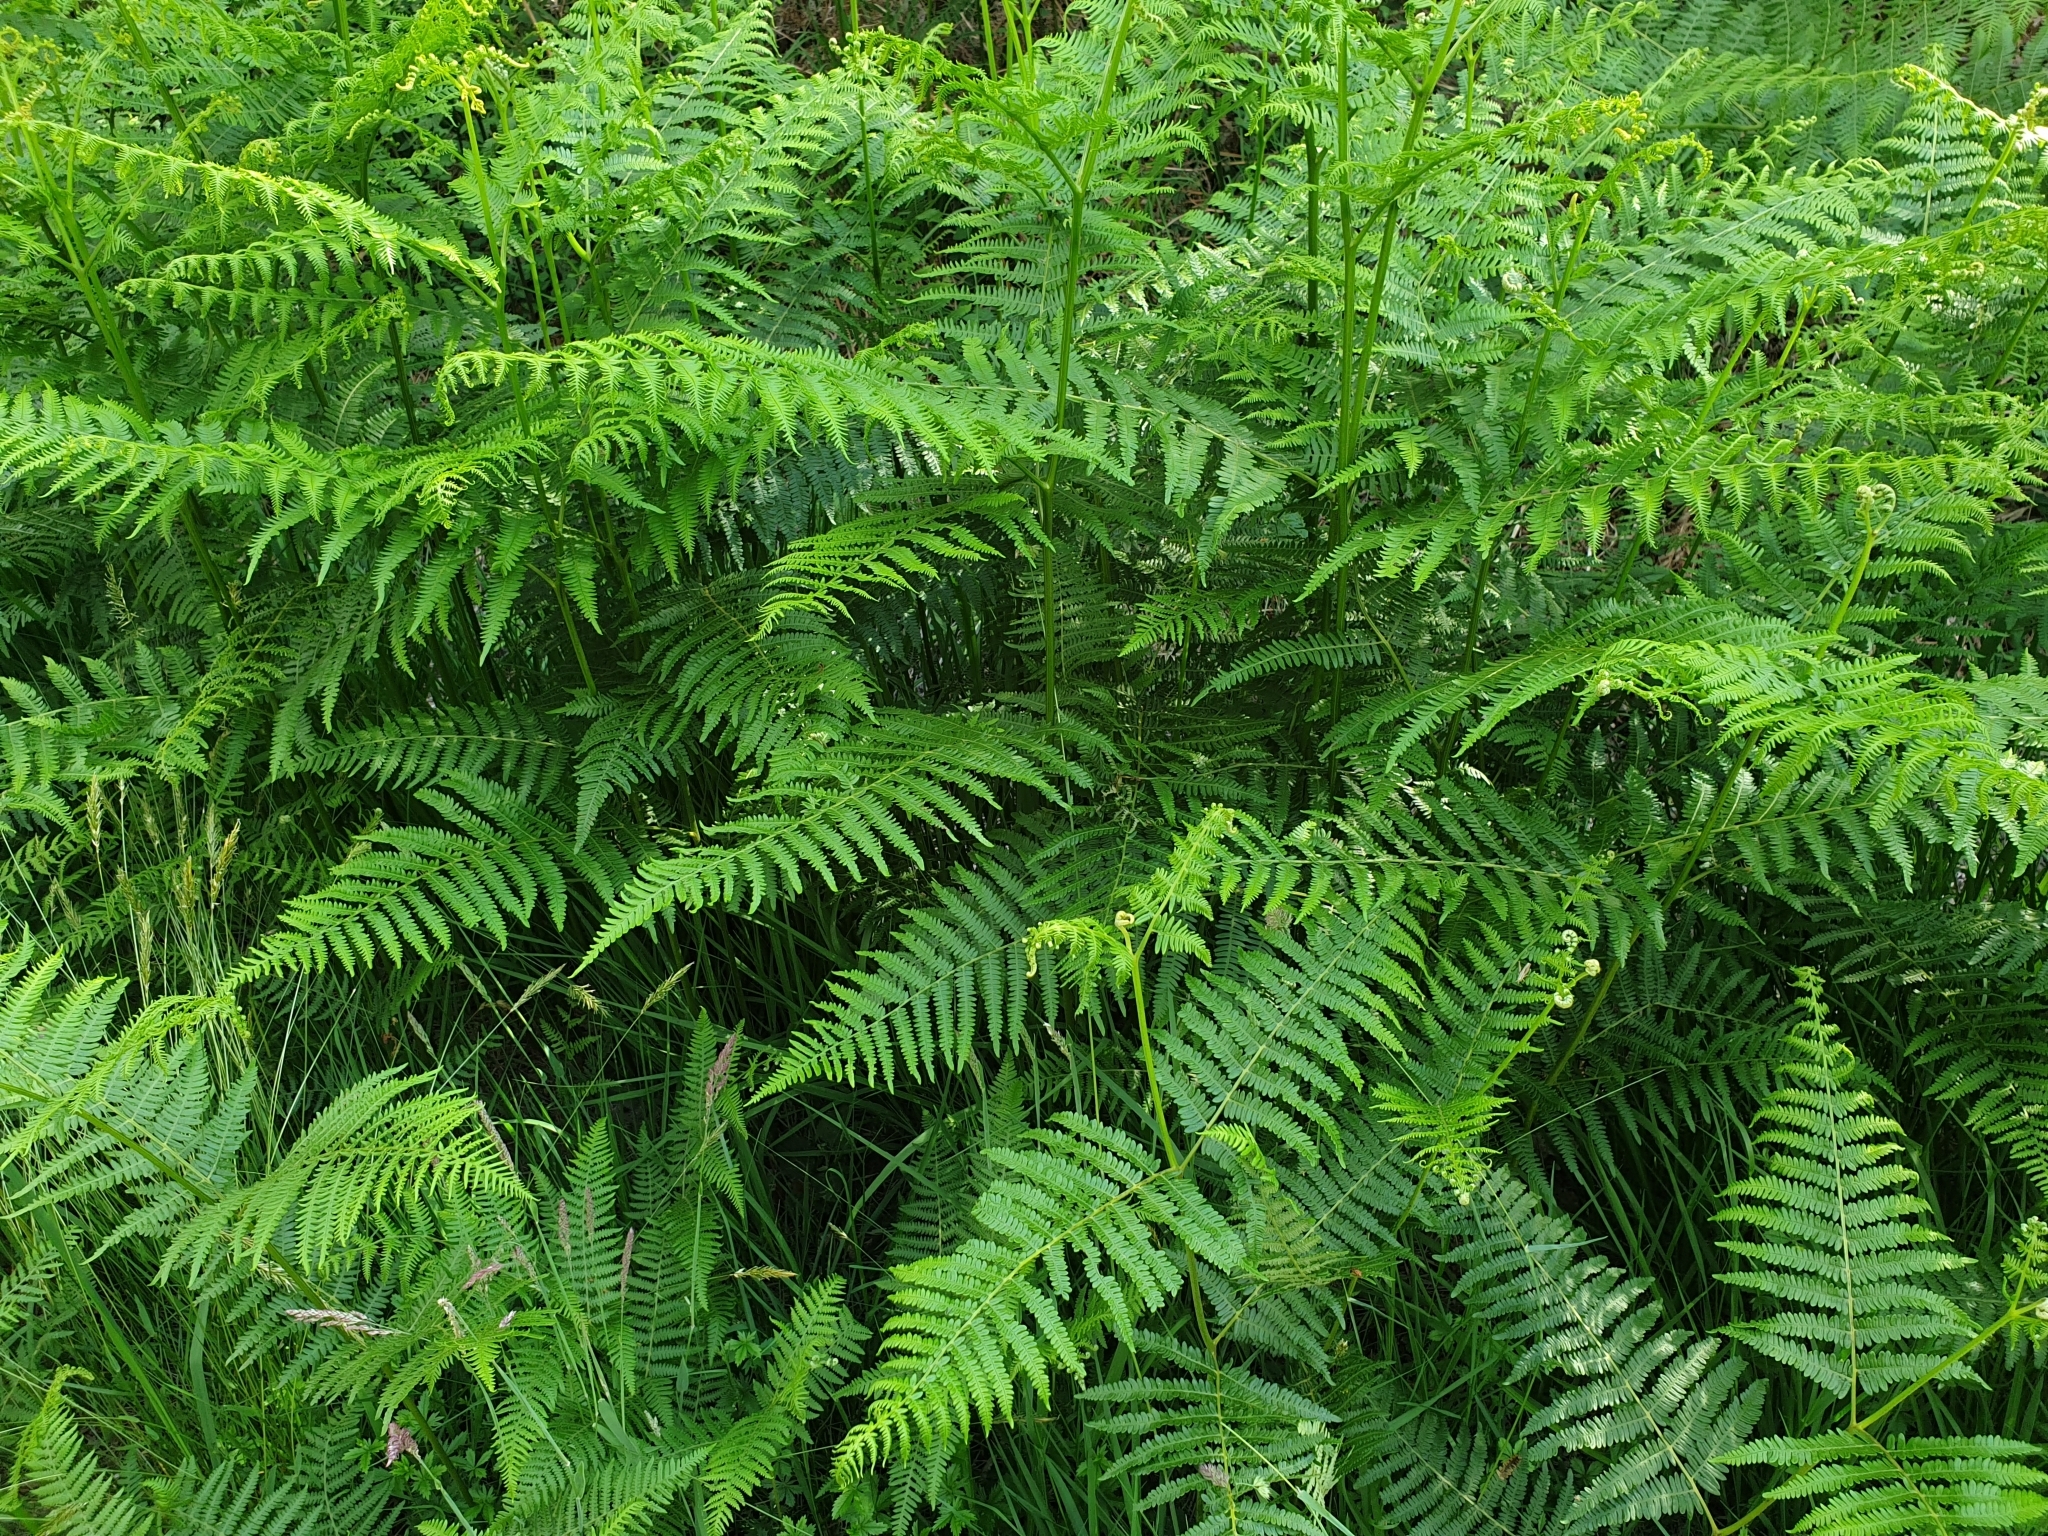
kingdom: Plantae
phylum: Tracheophyta
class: Polypodiopsida
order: Polypodiales
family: Dennstaedtiaceae
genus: Pteridium
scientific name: Pteridium aquilinum
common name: Bracken
